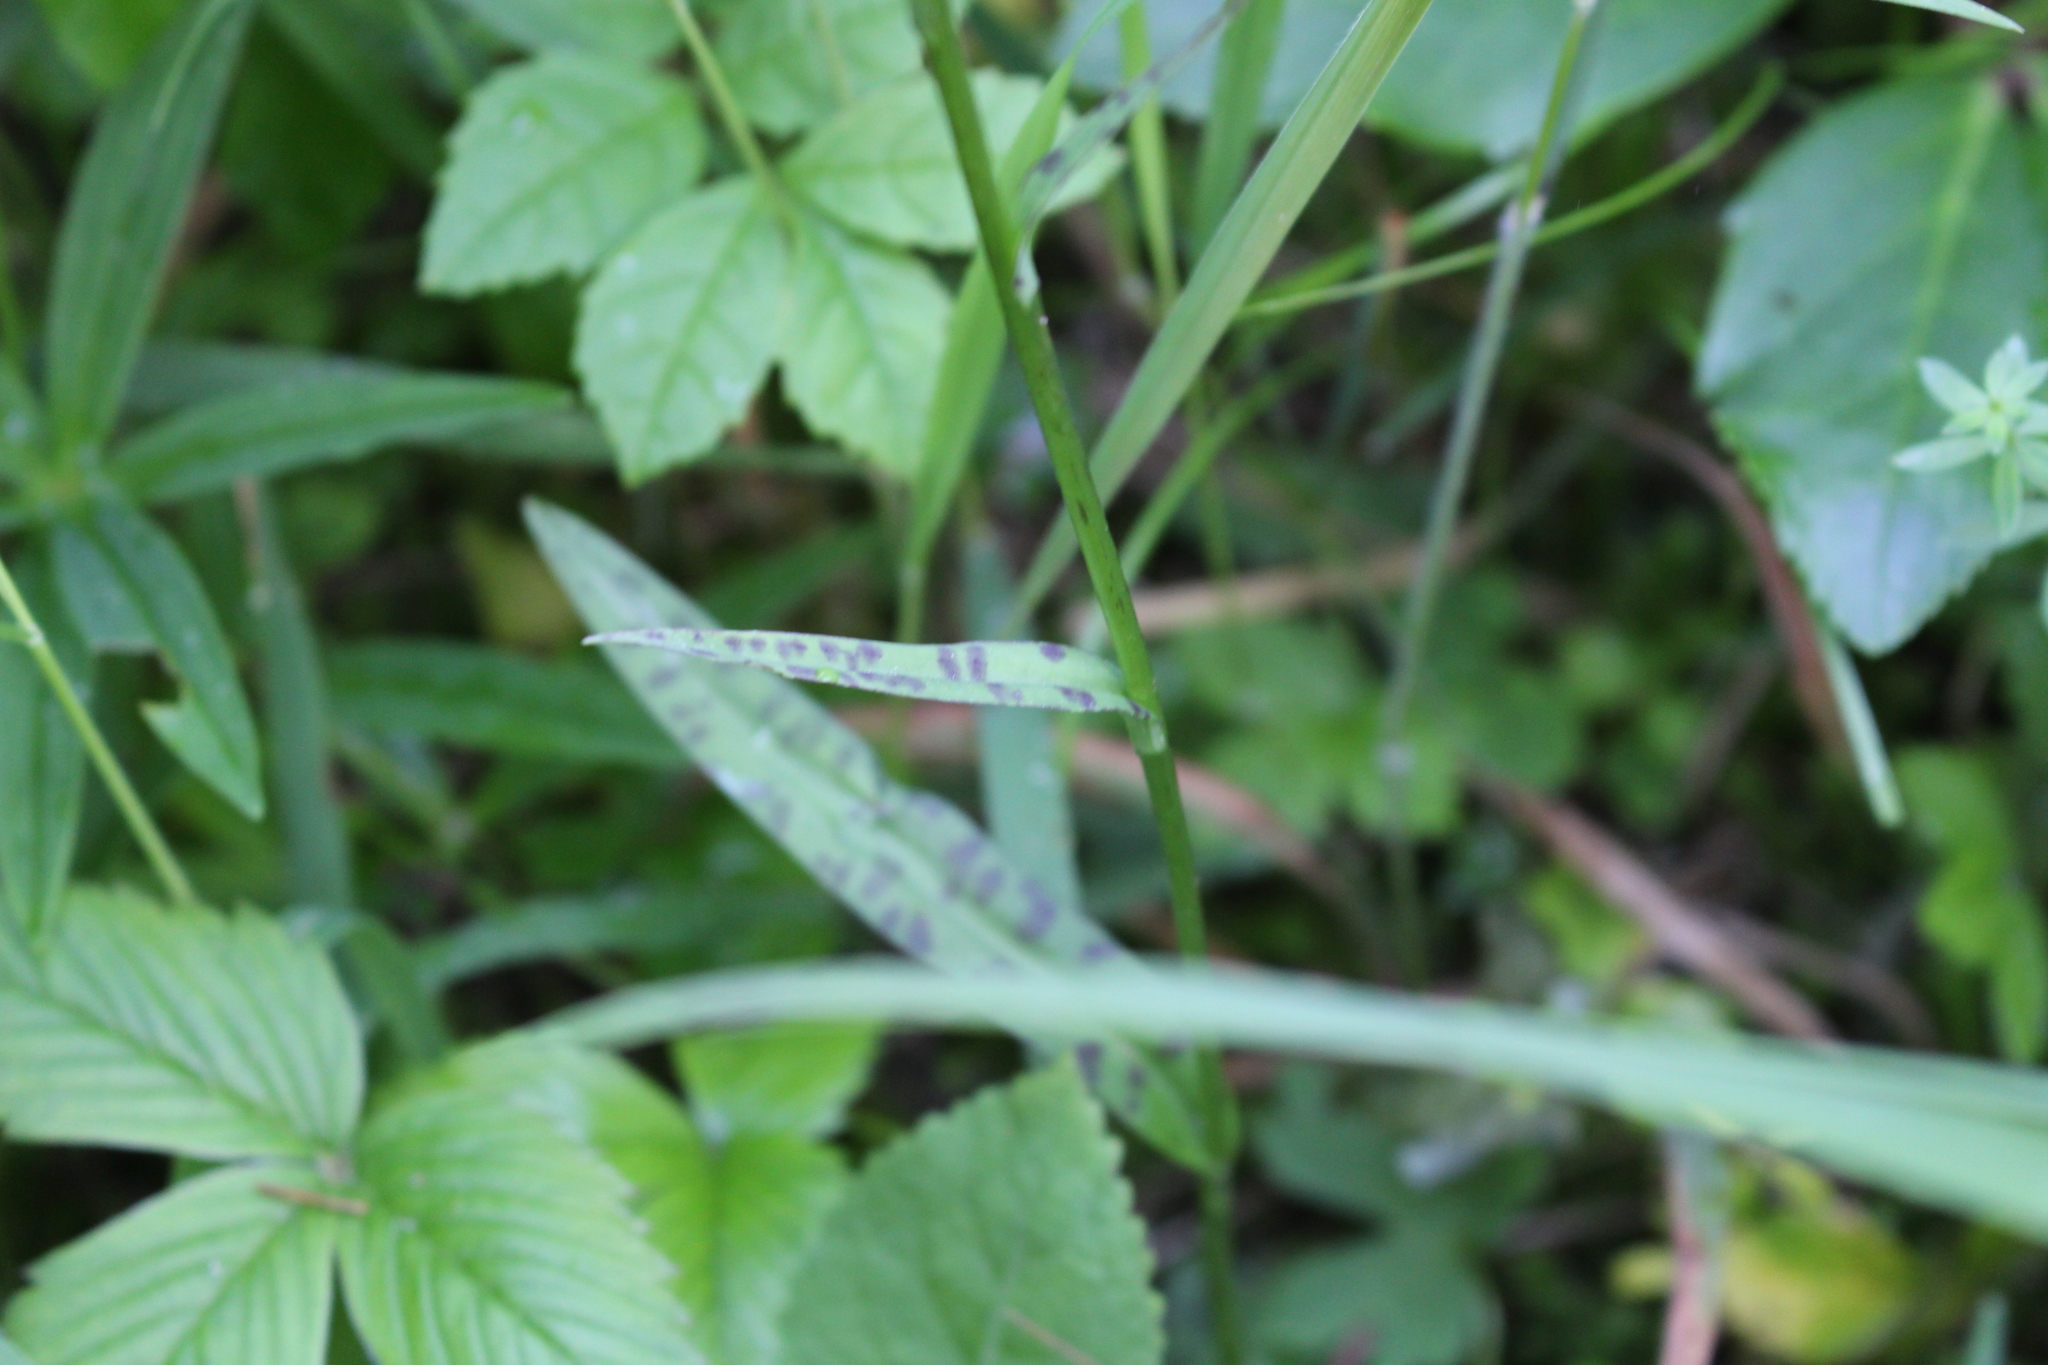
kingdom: Plantae
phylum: Tracheophyta
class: Liliopsida
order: Asparagales
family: Orchidaceae
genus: Dactylorhiza
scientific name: Dactylorhiza maculata
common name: Heath spotted-orchid
